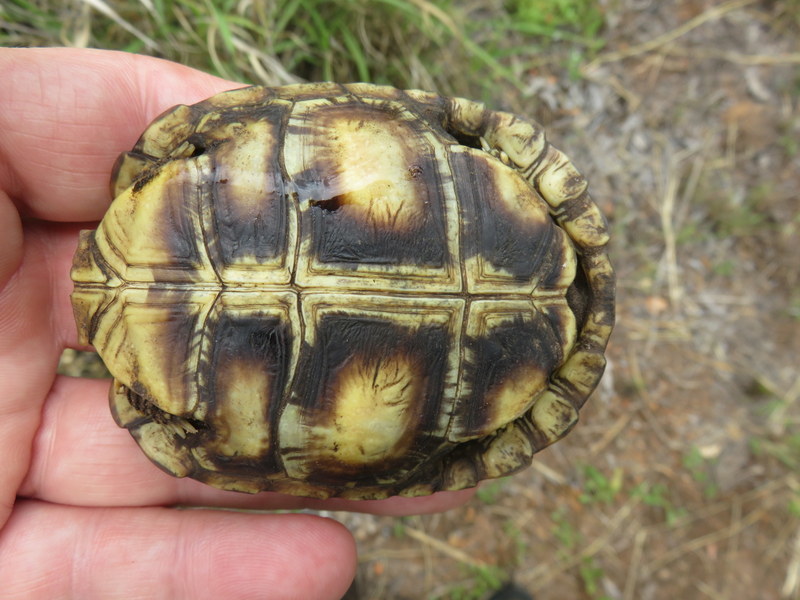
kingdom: Animalia
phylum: Chordata
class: Testudines
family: Testudinidae
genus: Kinixys
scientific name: Kinixys spekii
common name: Speke's hingeback tortoise
